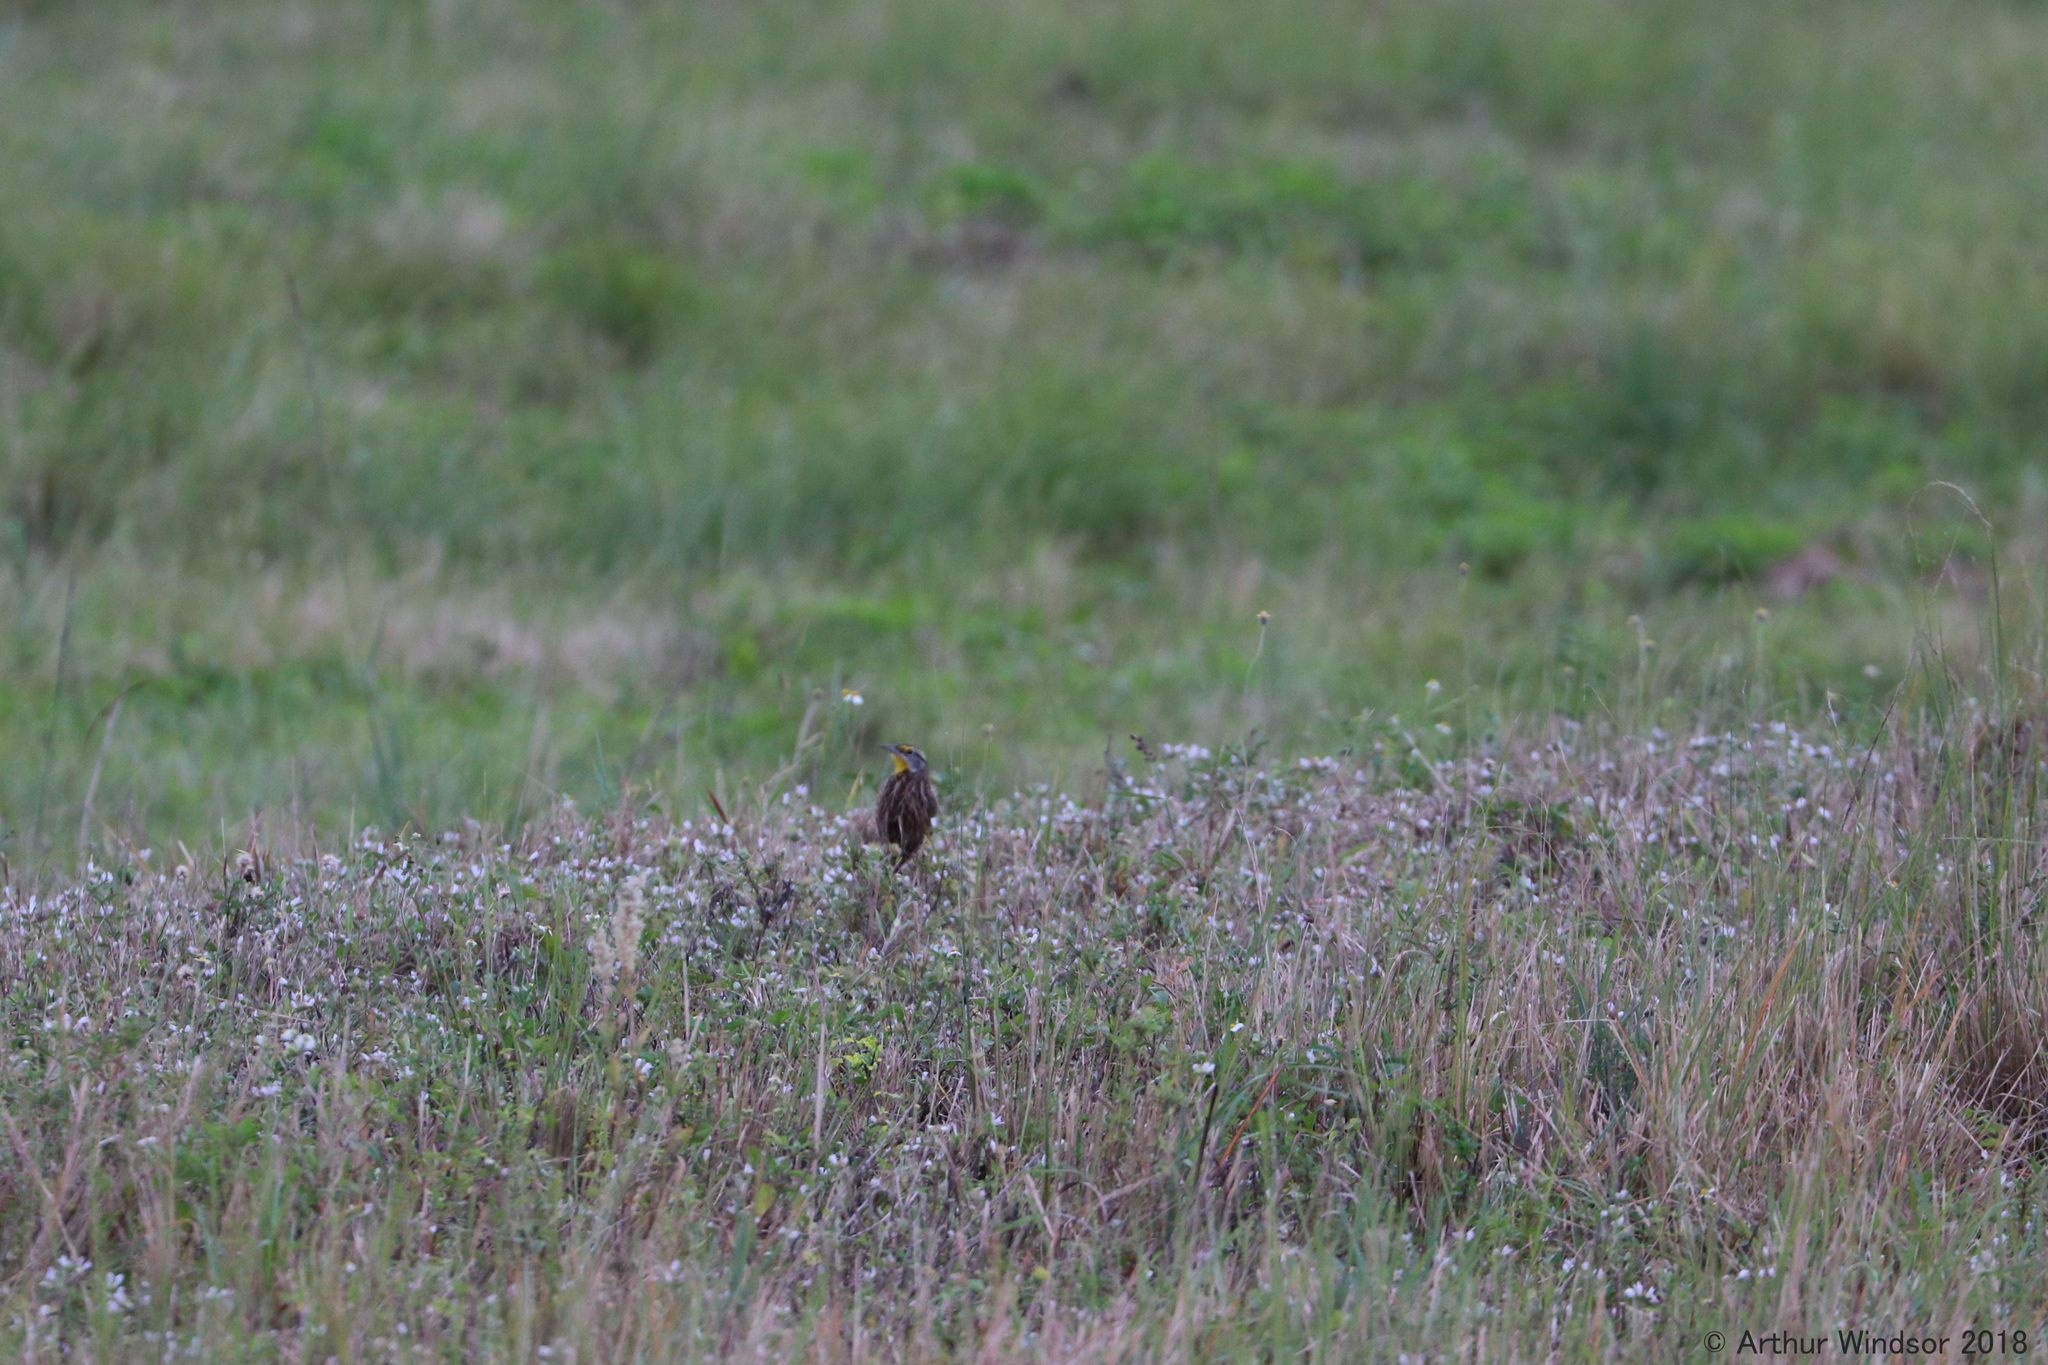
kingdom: Animalia
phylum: Chordata
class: Aves
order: Passeriformes
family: Icteridae
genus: Sturnella
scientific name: Sturnella magna
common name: Eastern meadowlark
